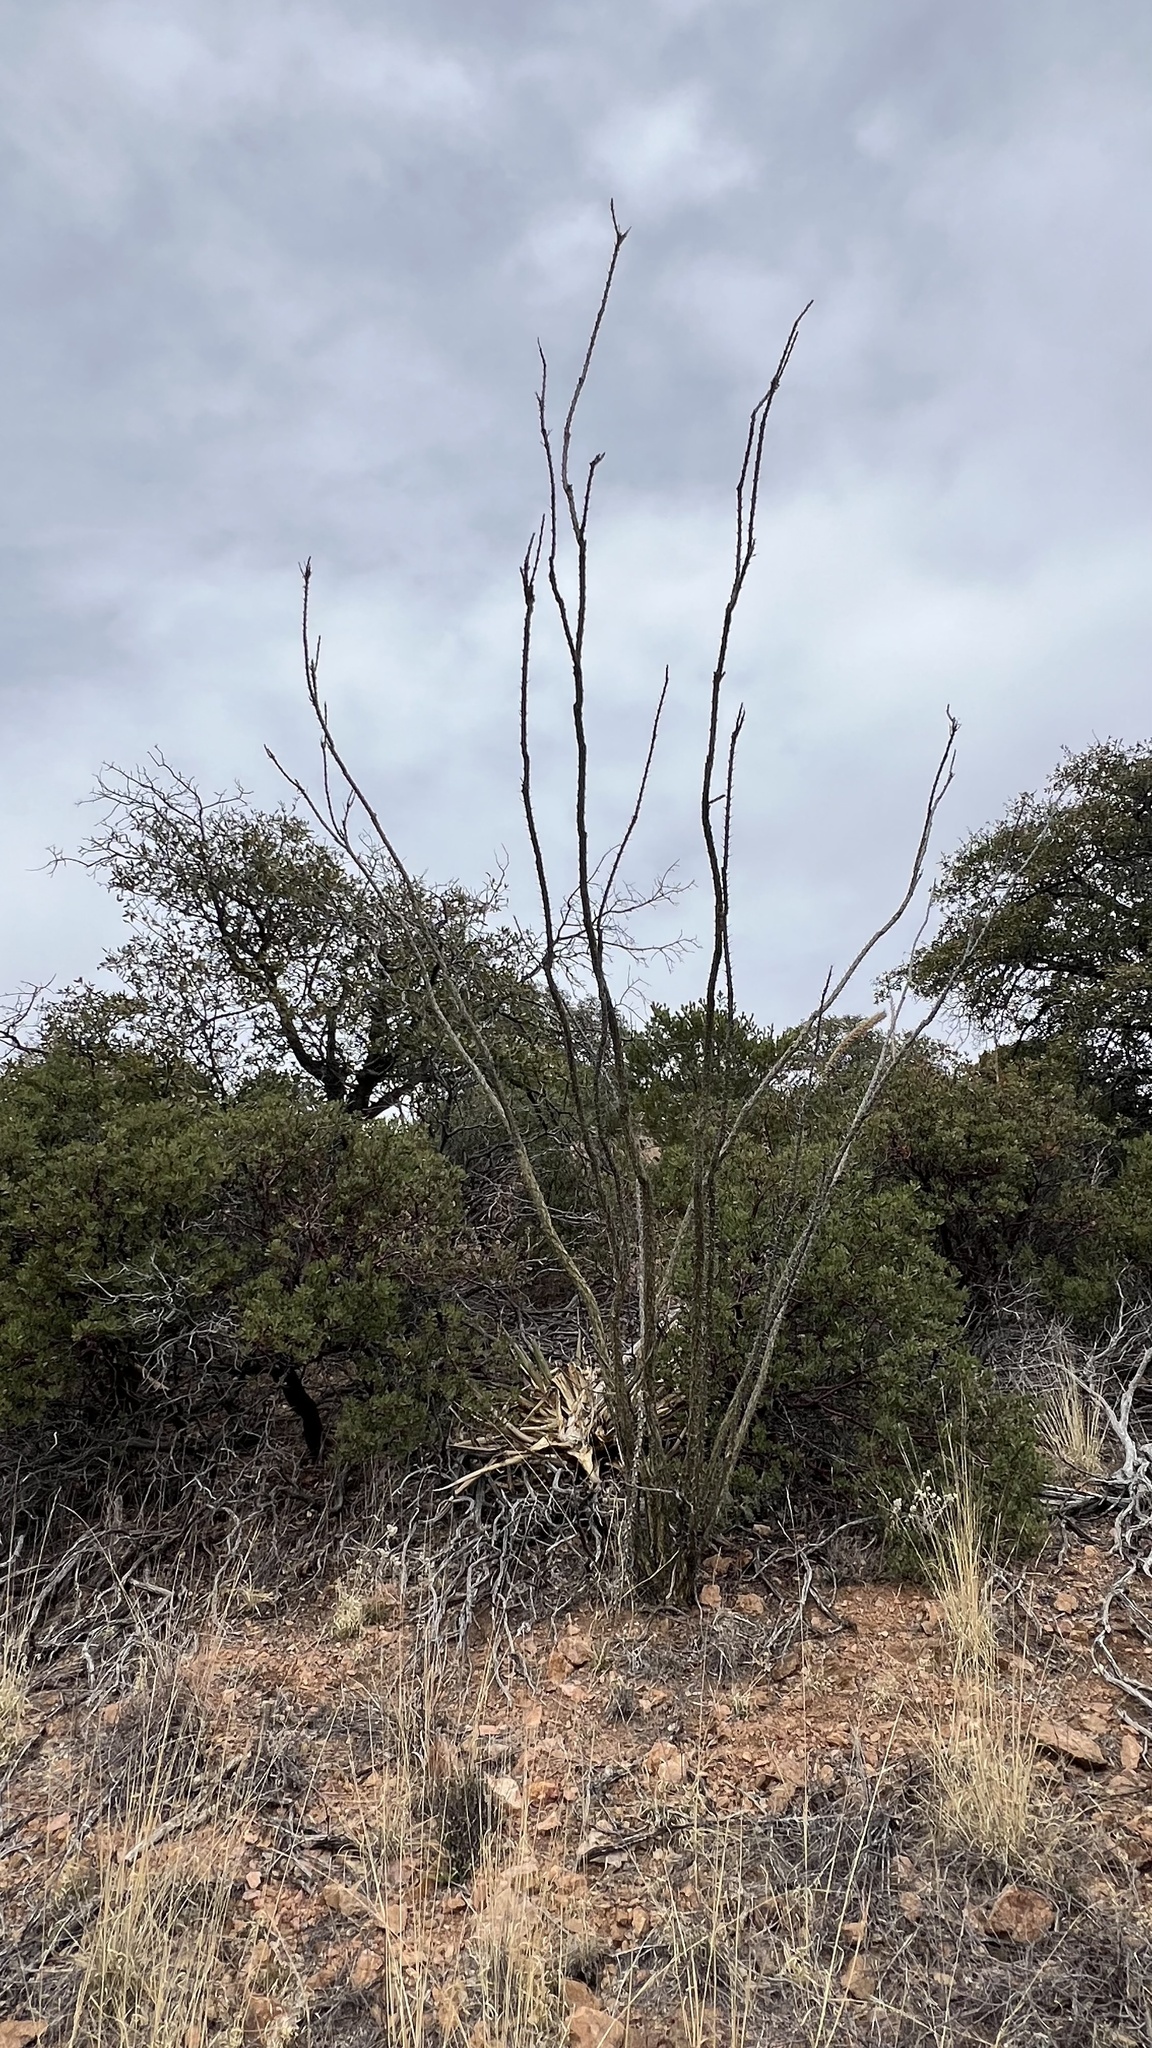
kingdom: Plantae
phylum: Tracheophyta
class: Magnoliopsida
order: Ericales
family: Fouquieriaceae
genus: Fouquieria
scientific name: Fouquieria splendens
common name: Vine-cactus
